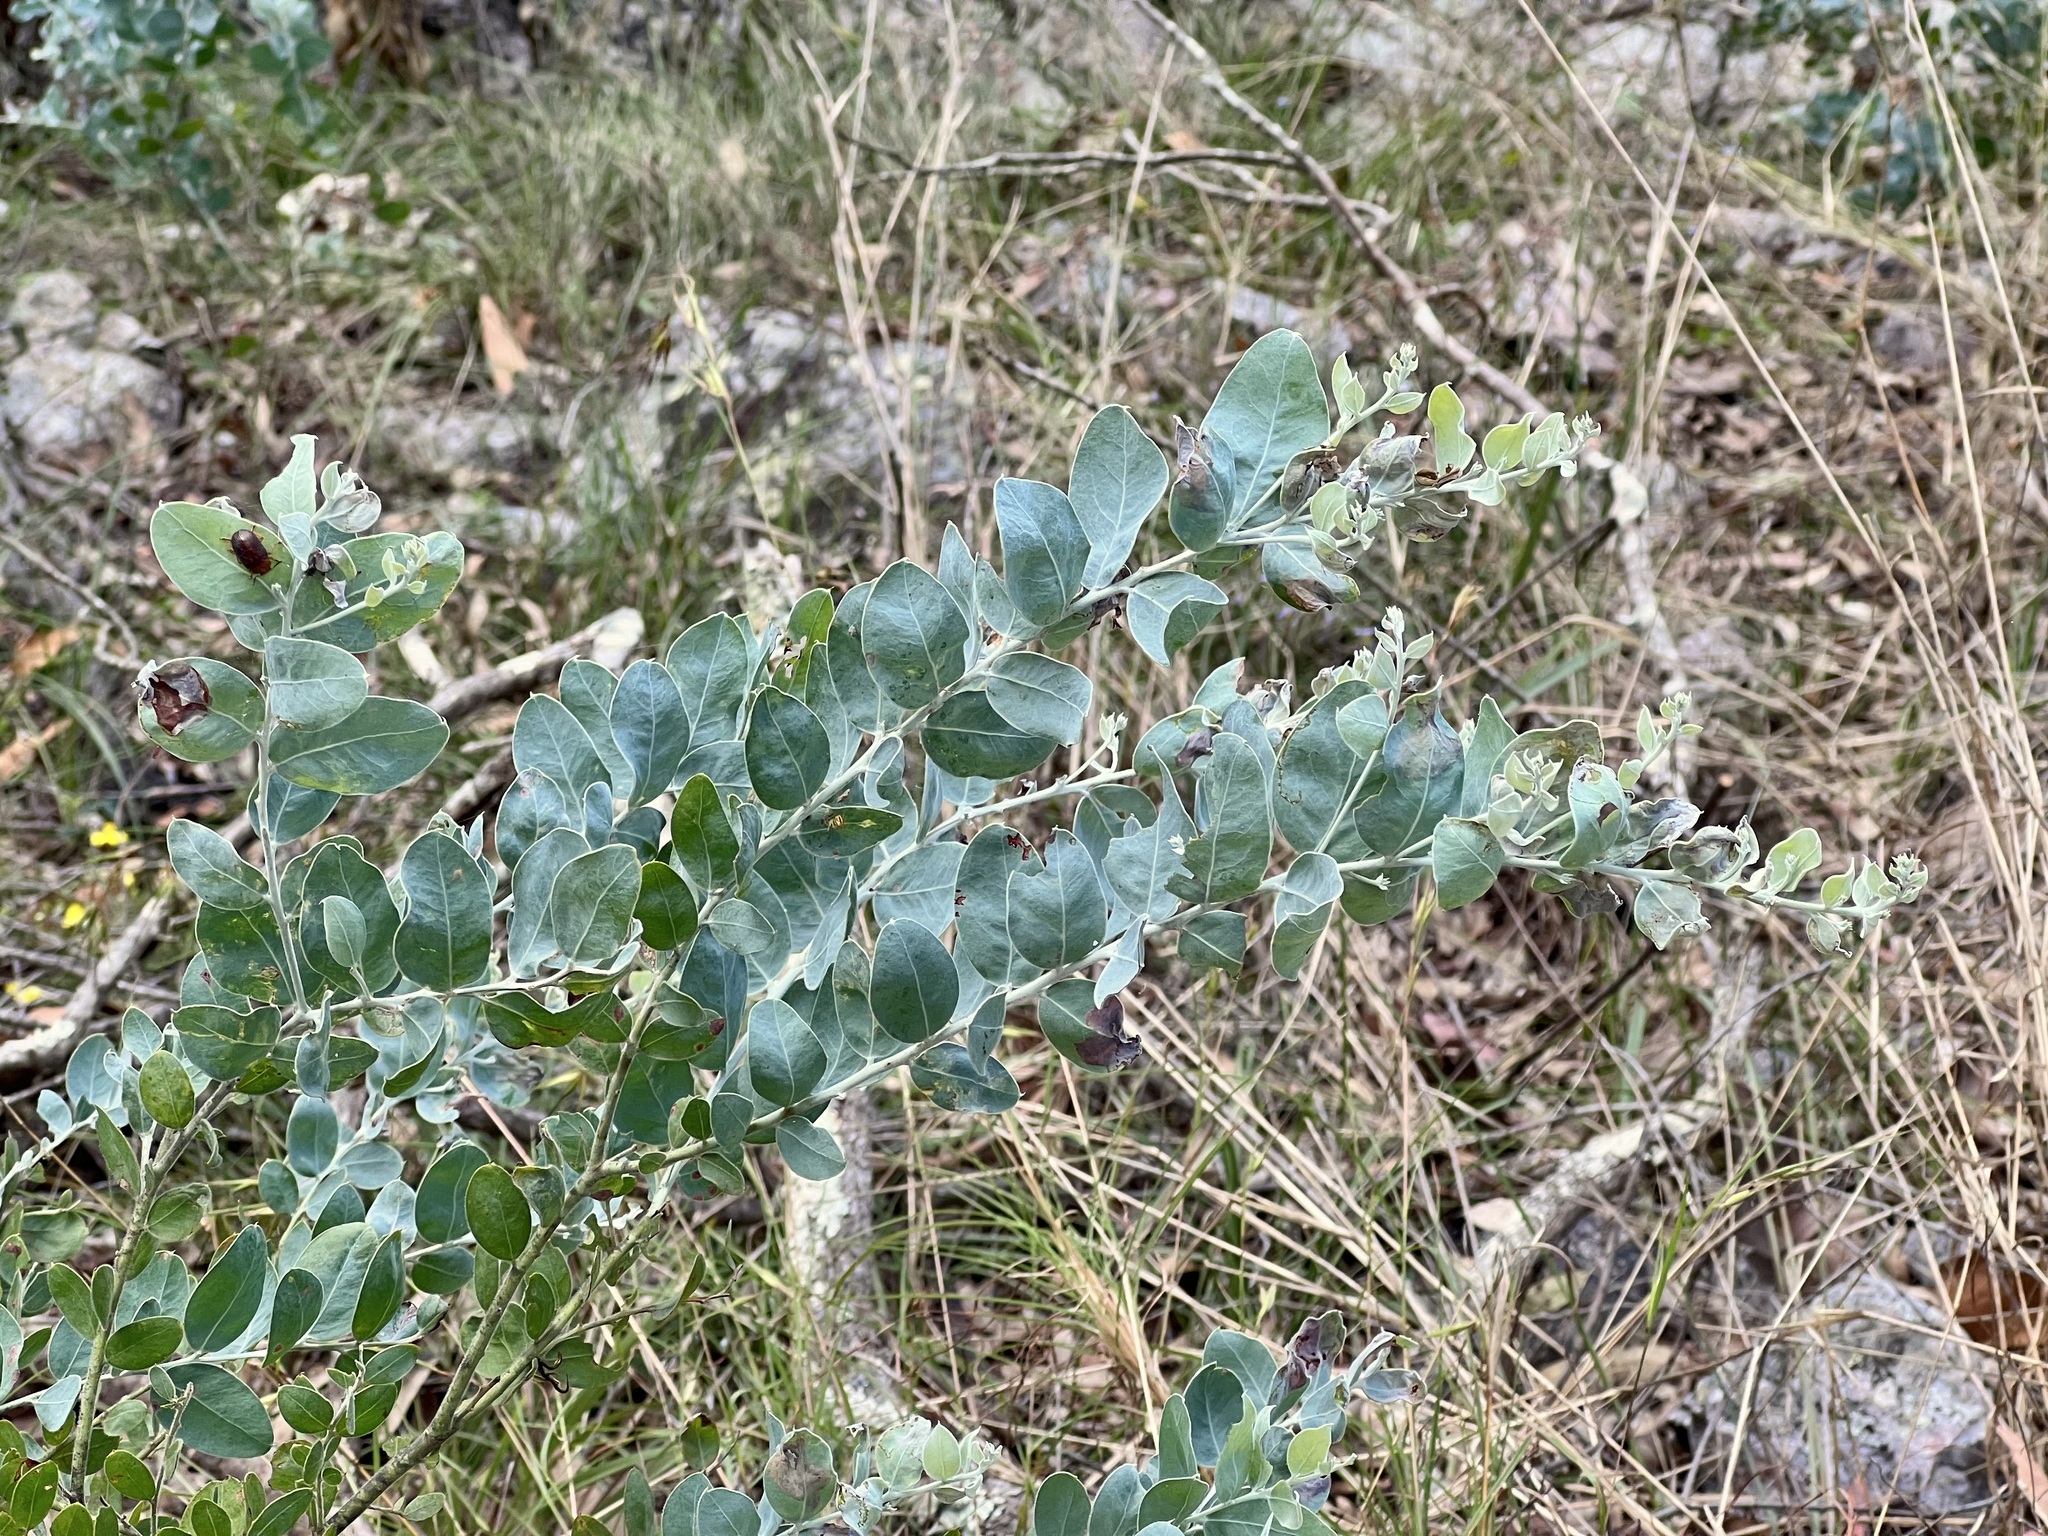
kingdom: Plantae
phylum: Tracheophyta
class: Magnoliopsida
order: Fabales
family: Fabaceae
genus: Acacia
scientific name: Acacia podalyriifolia
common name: Pearl wattle
